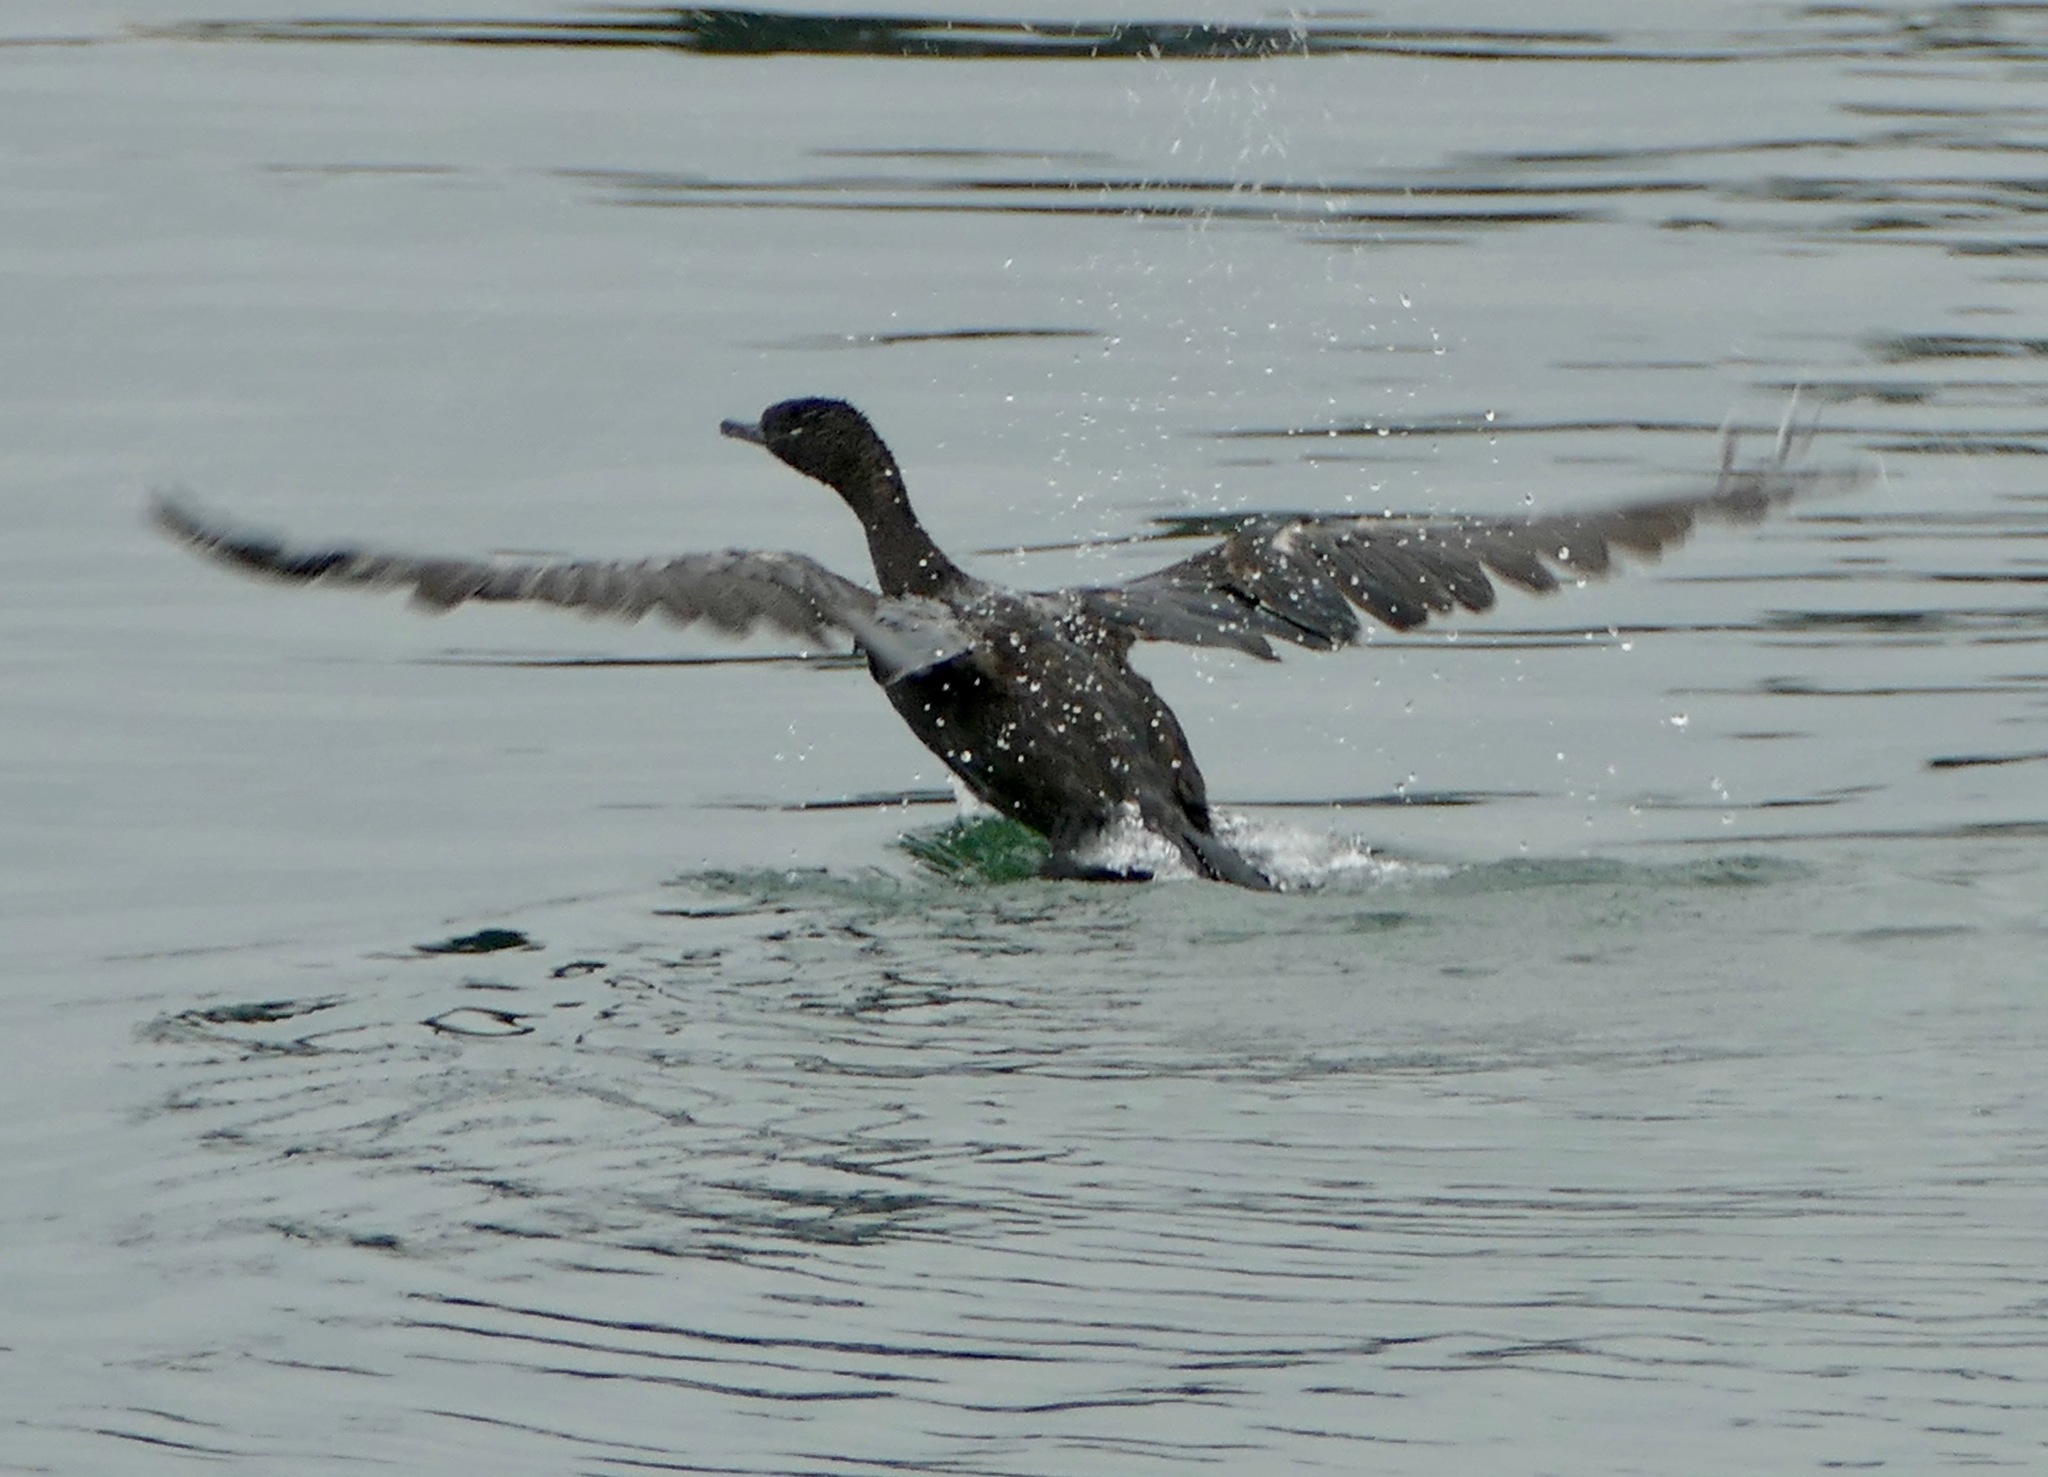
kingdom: Animalia
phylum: Chordata
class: Aves
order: Suliformes
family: Phalacrocoracidae
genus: Phalacrocorax
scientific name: Phalacrocorax pelagicus
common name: Pelagic cormorant
